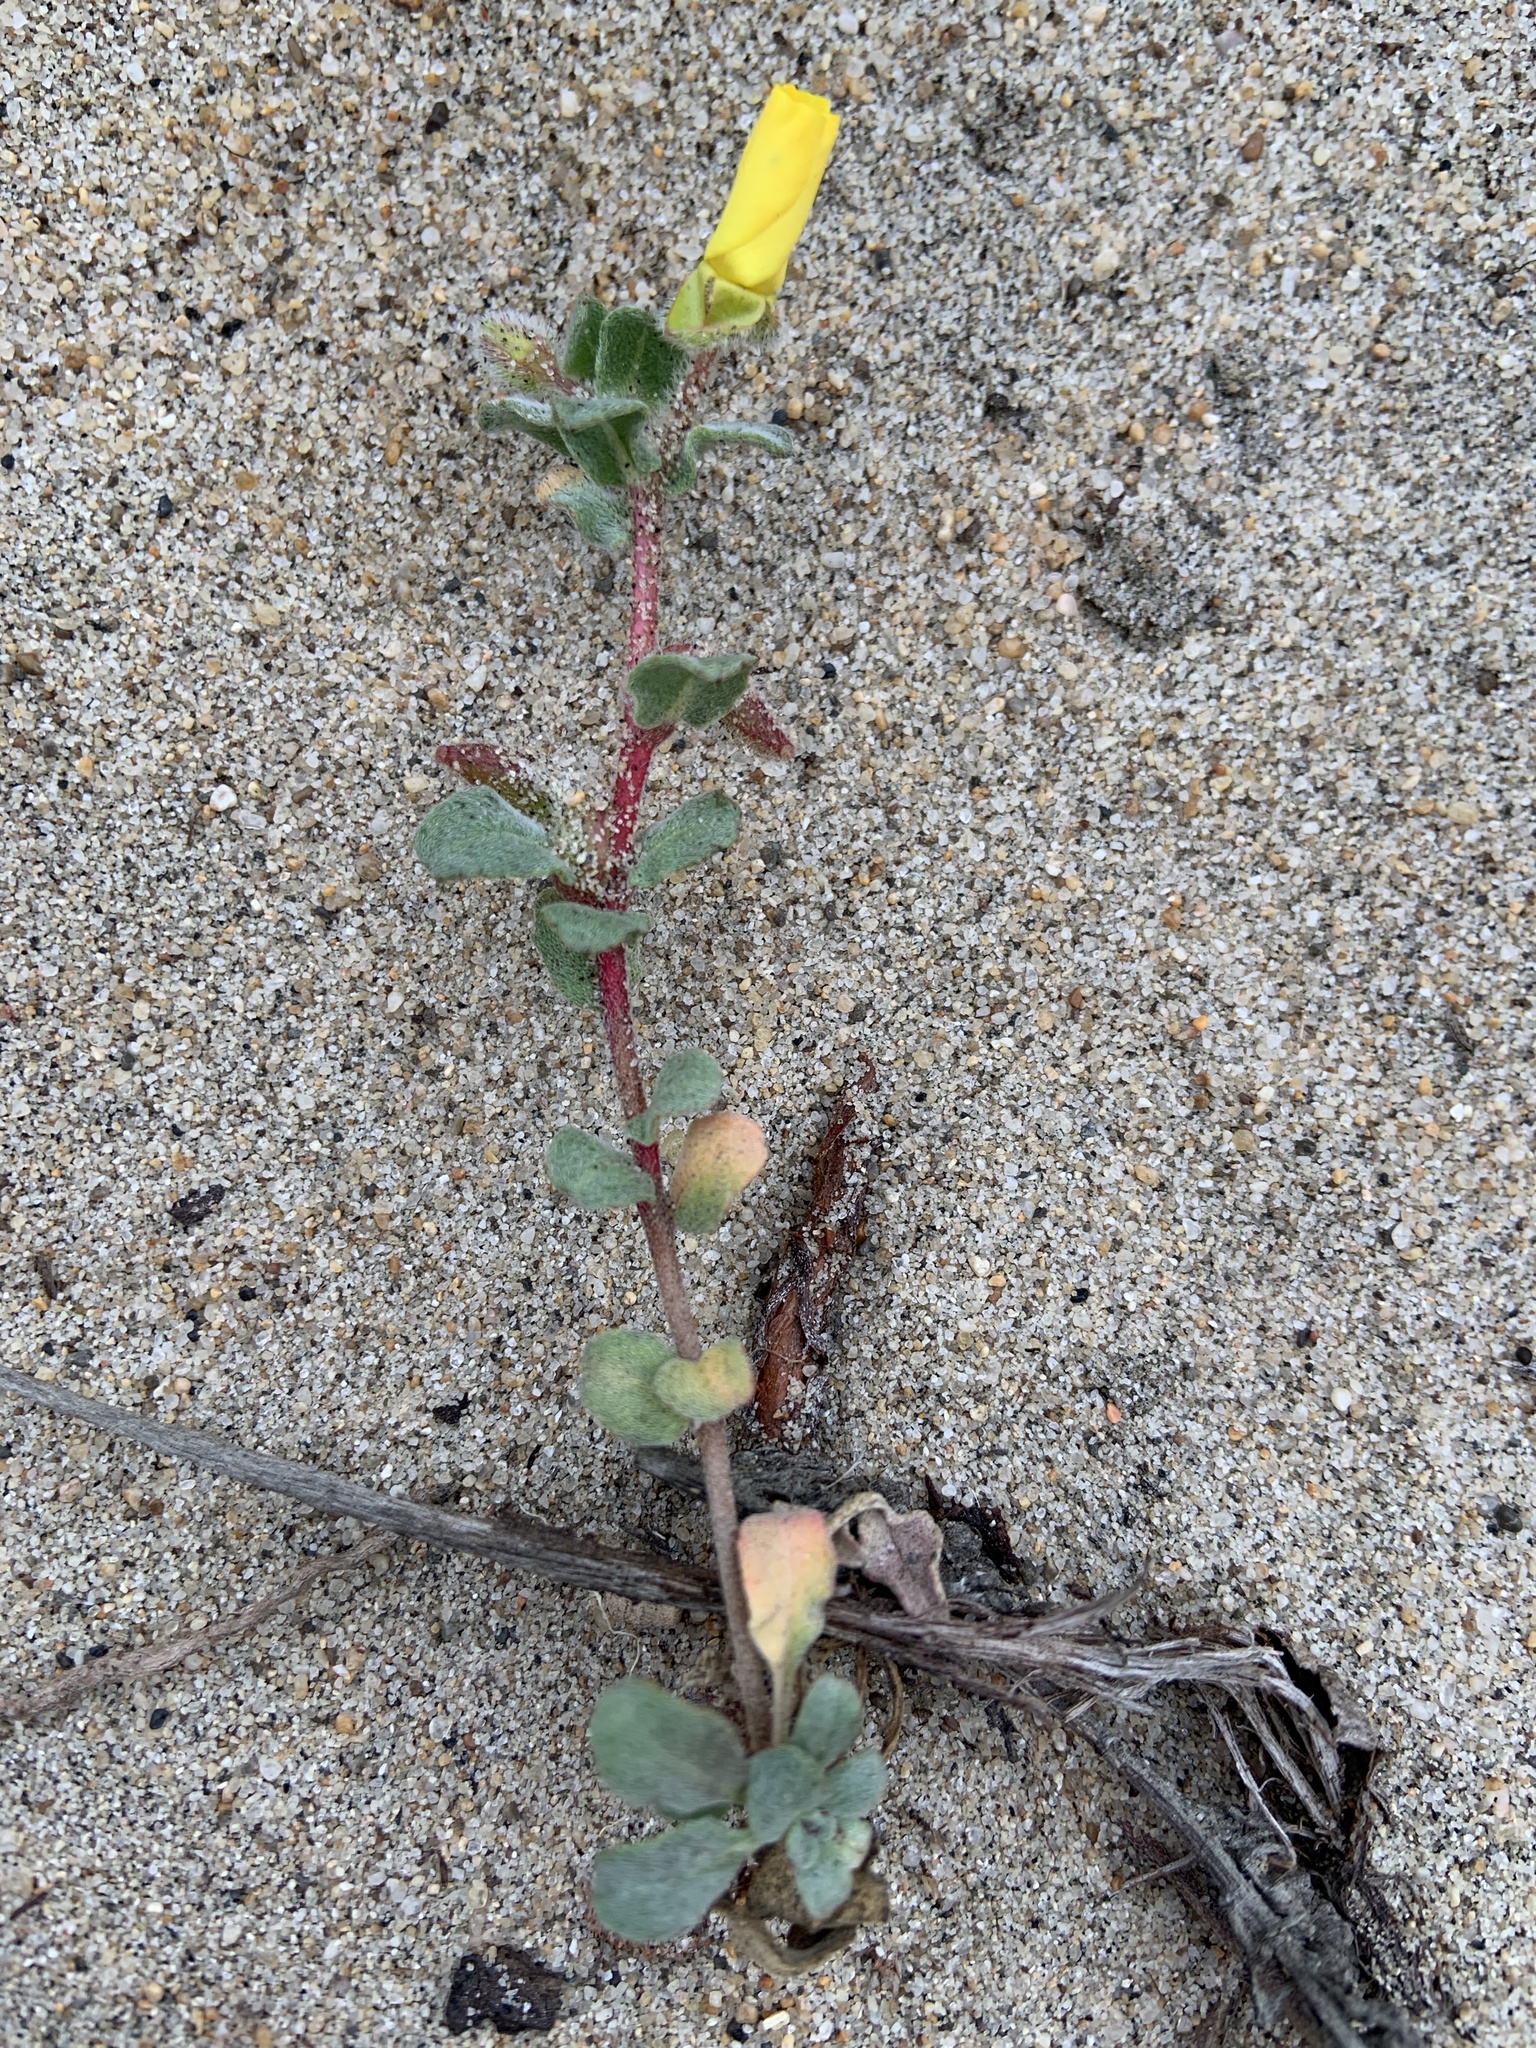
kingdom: Plantae
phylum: Tracheophyta
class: Magnoliopsida
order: Myrtales
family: Onagraceae
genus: Camissoniopsis
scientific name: Camissoniopsis cheiranthifolia
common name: Beach suncup
